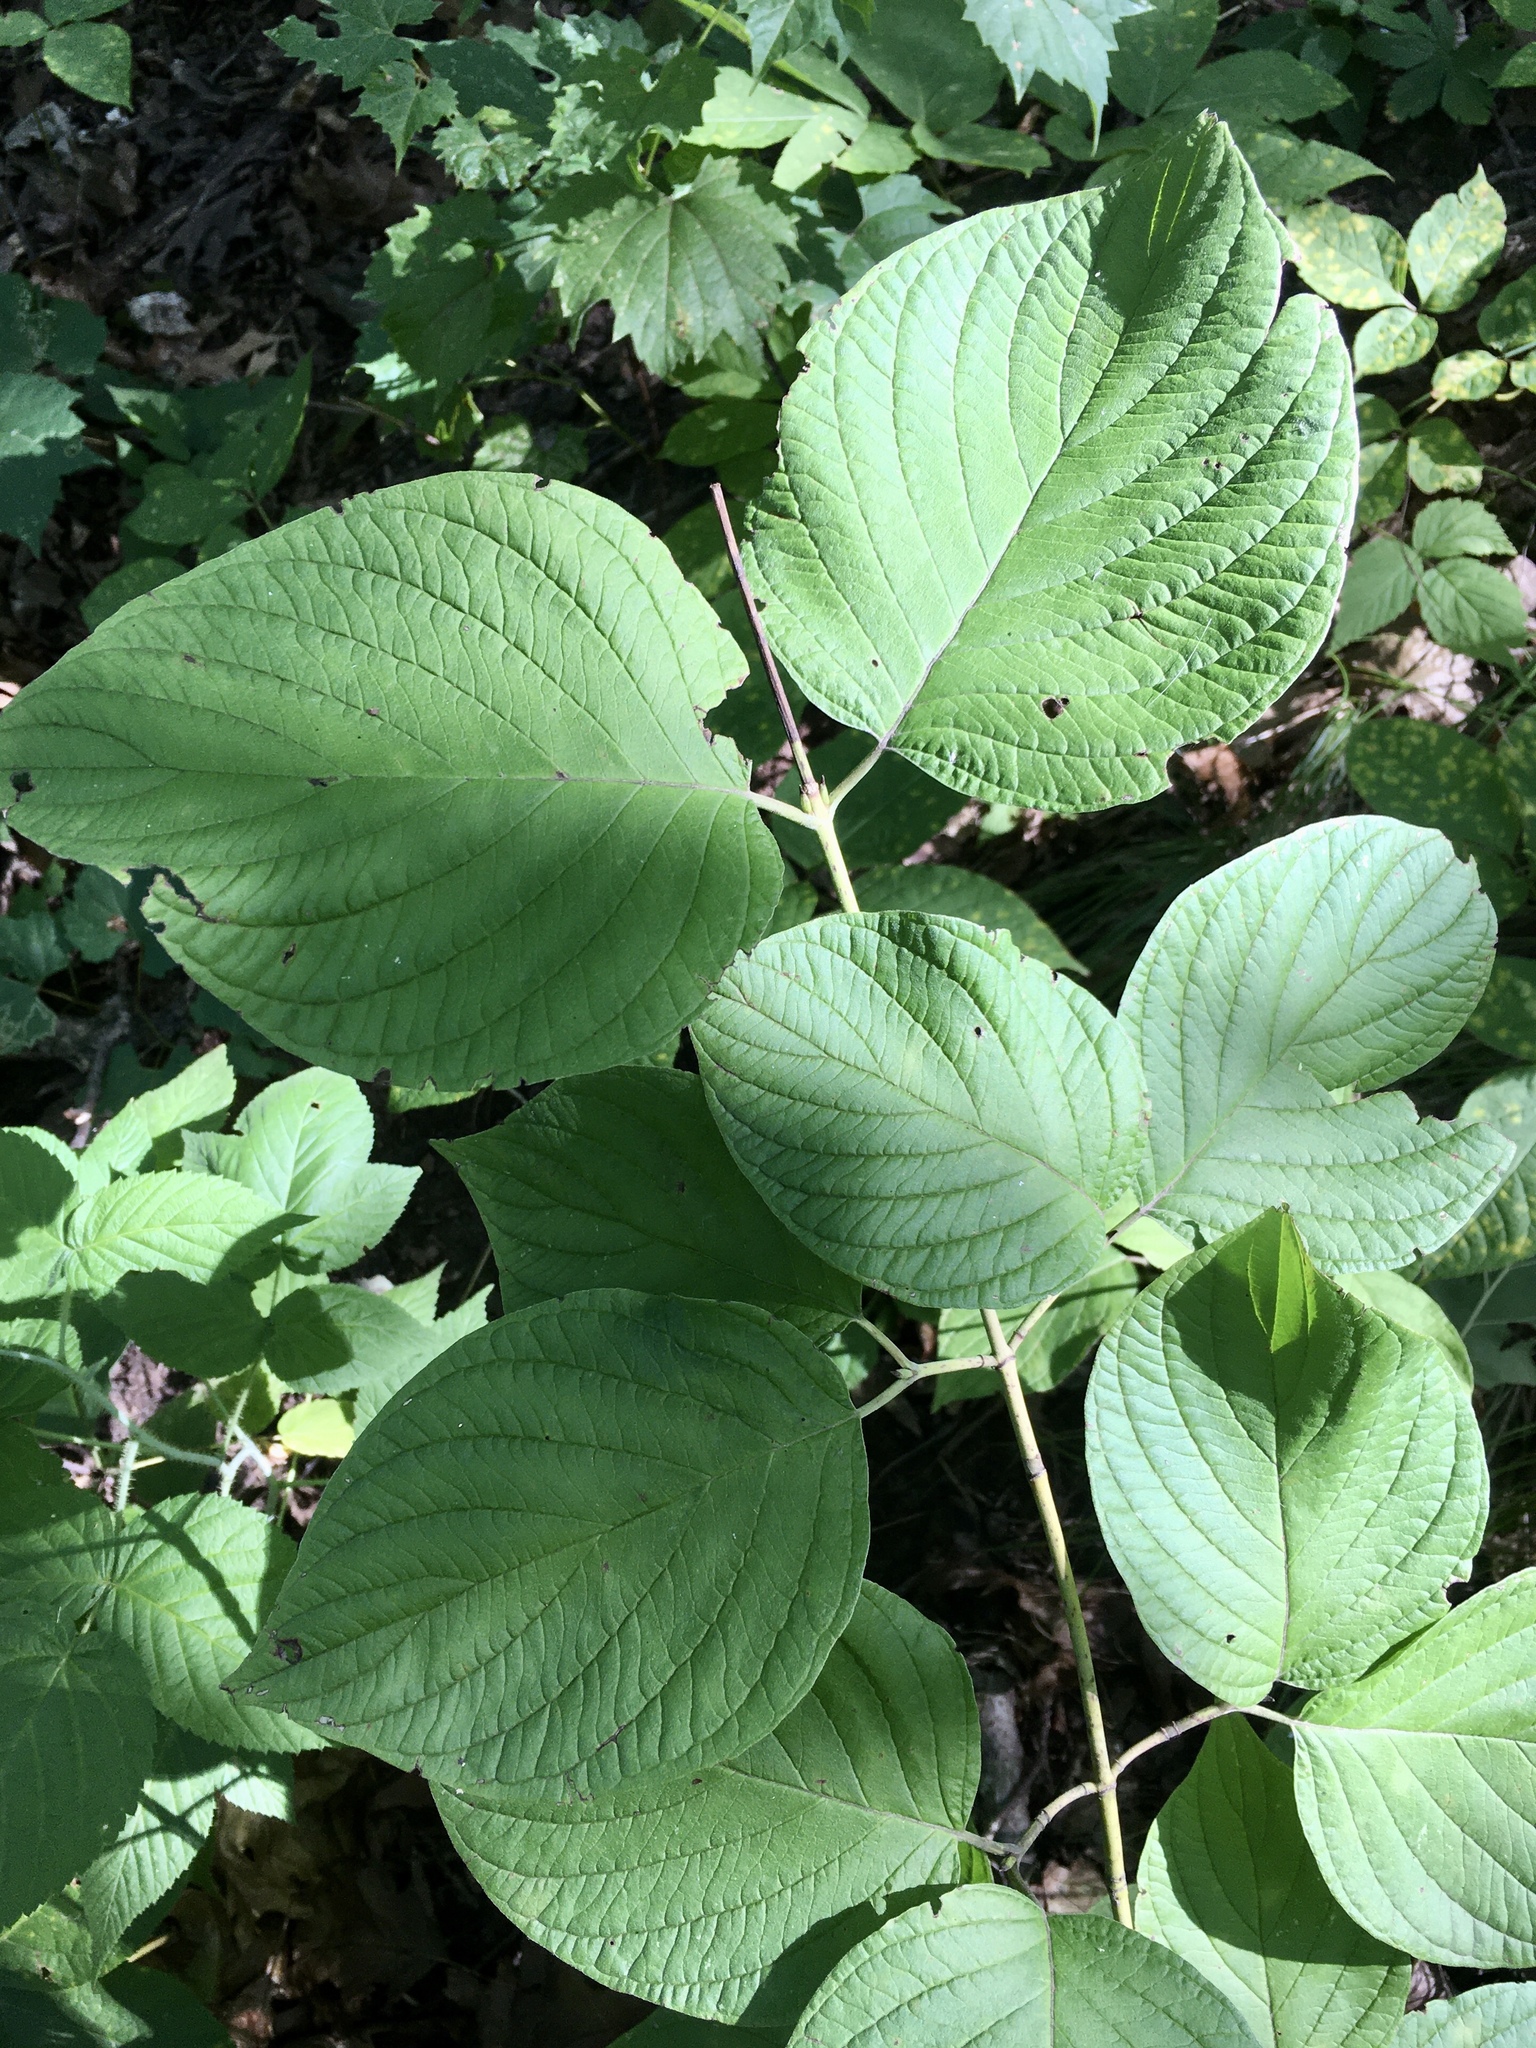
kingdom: Plantae
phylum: Tracheophyta
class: Magnoliopsida
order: Cornales
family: Cornaceae
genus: Cornus
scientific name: Cornus rugosa
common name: Round-leaf dogwood
